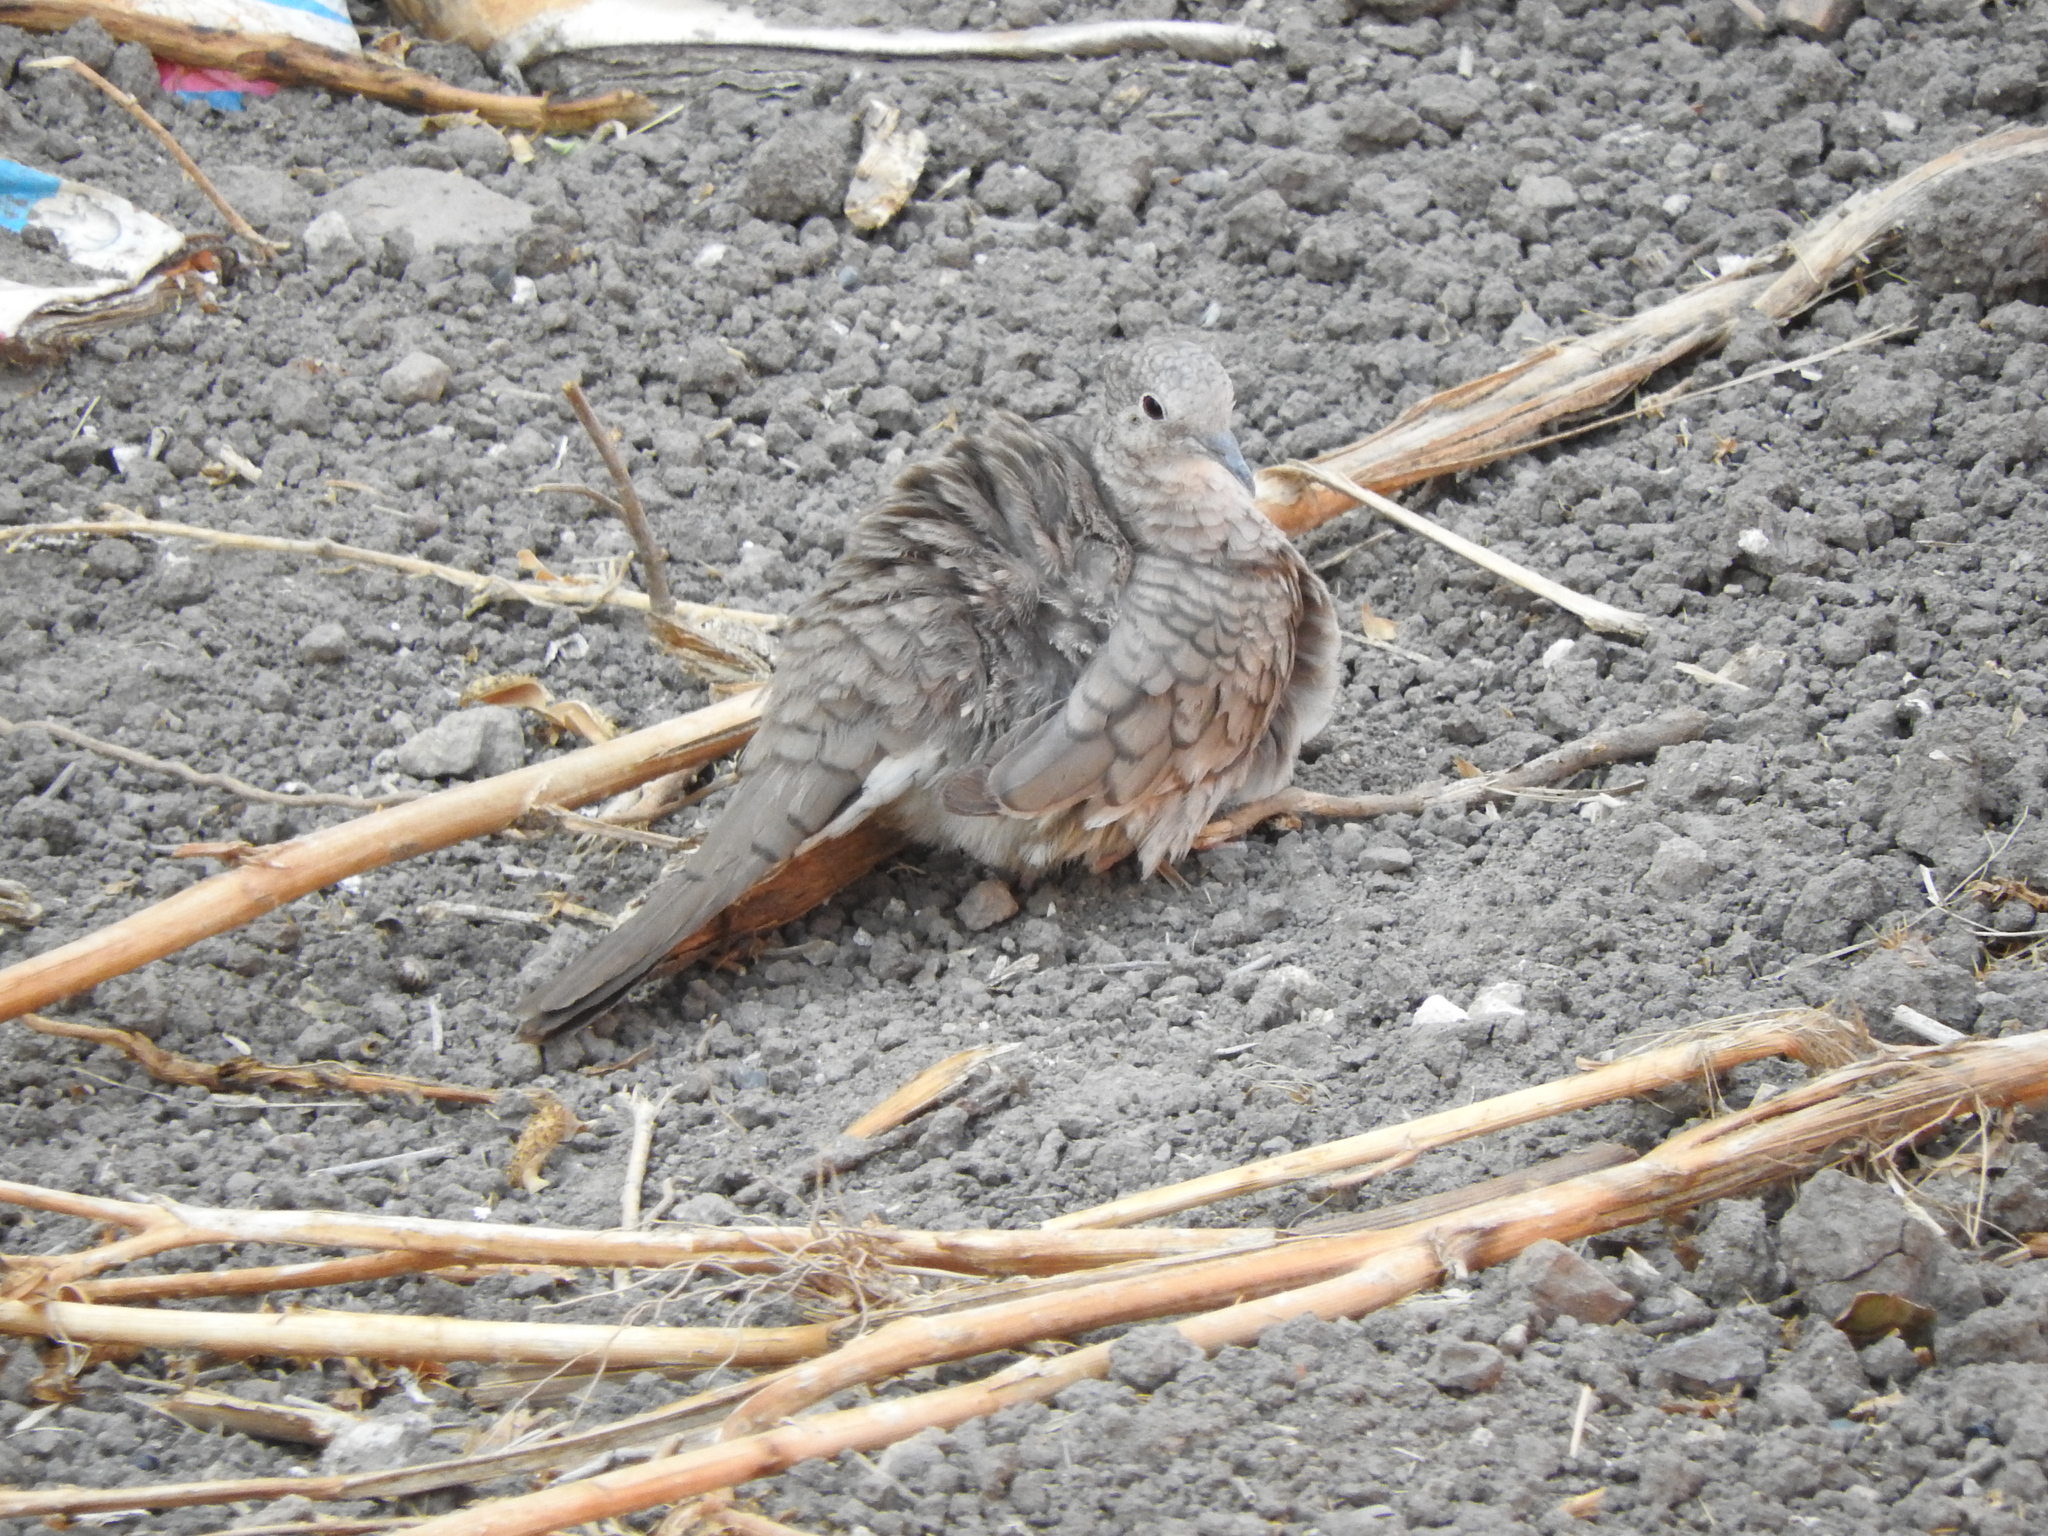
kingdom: Animalia
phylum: Chordata
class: Aves
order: Columbiformes
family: Columbidae
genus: Columbina
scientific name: Columbina inca
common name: Inca dove
